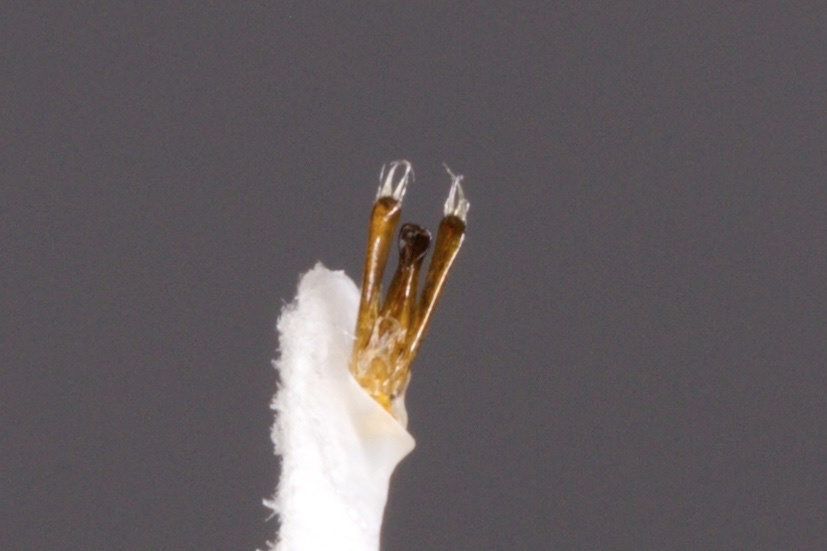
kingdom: Animalia
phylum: Arthropoda
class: Insecta
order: Coleoptera
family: Gyrinidae
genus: Gyrinus
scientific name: Gyrinus gibber
